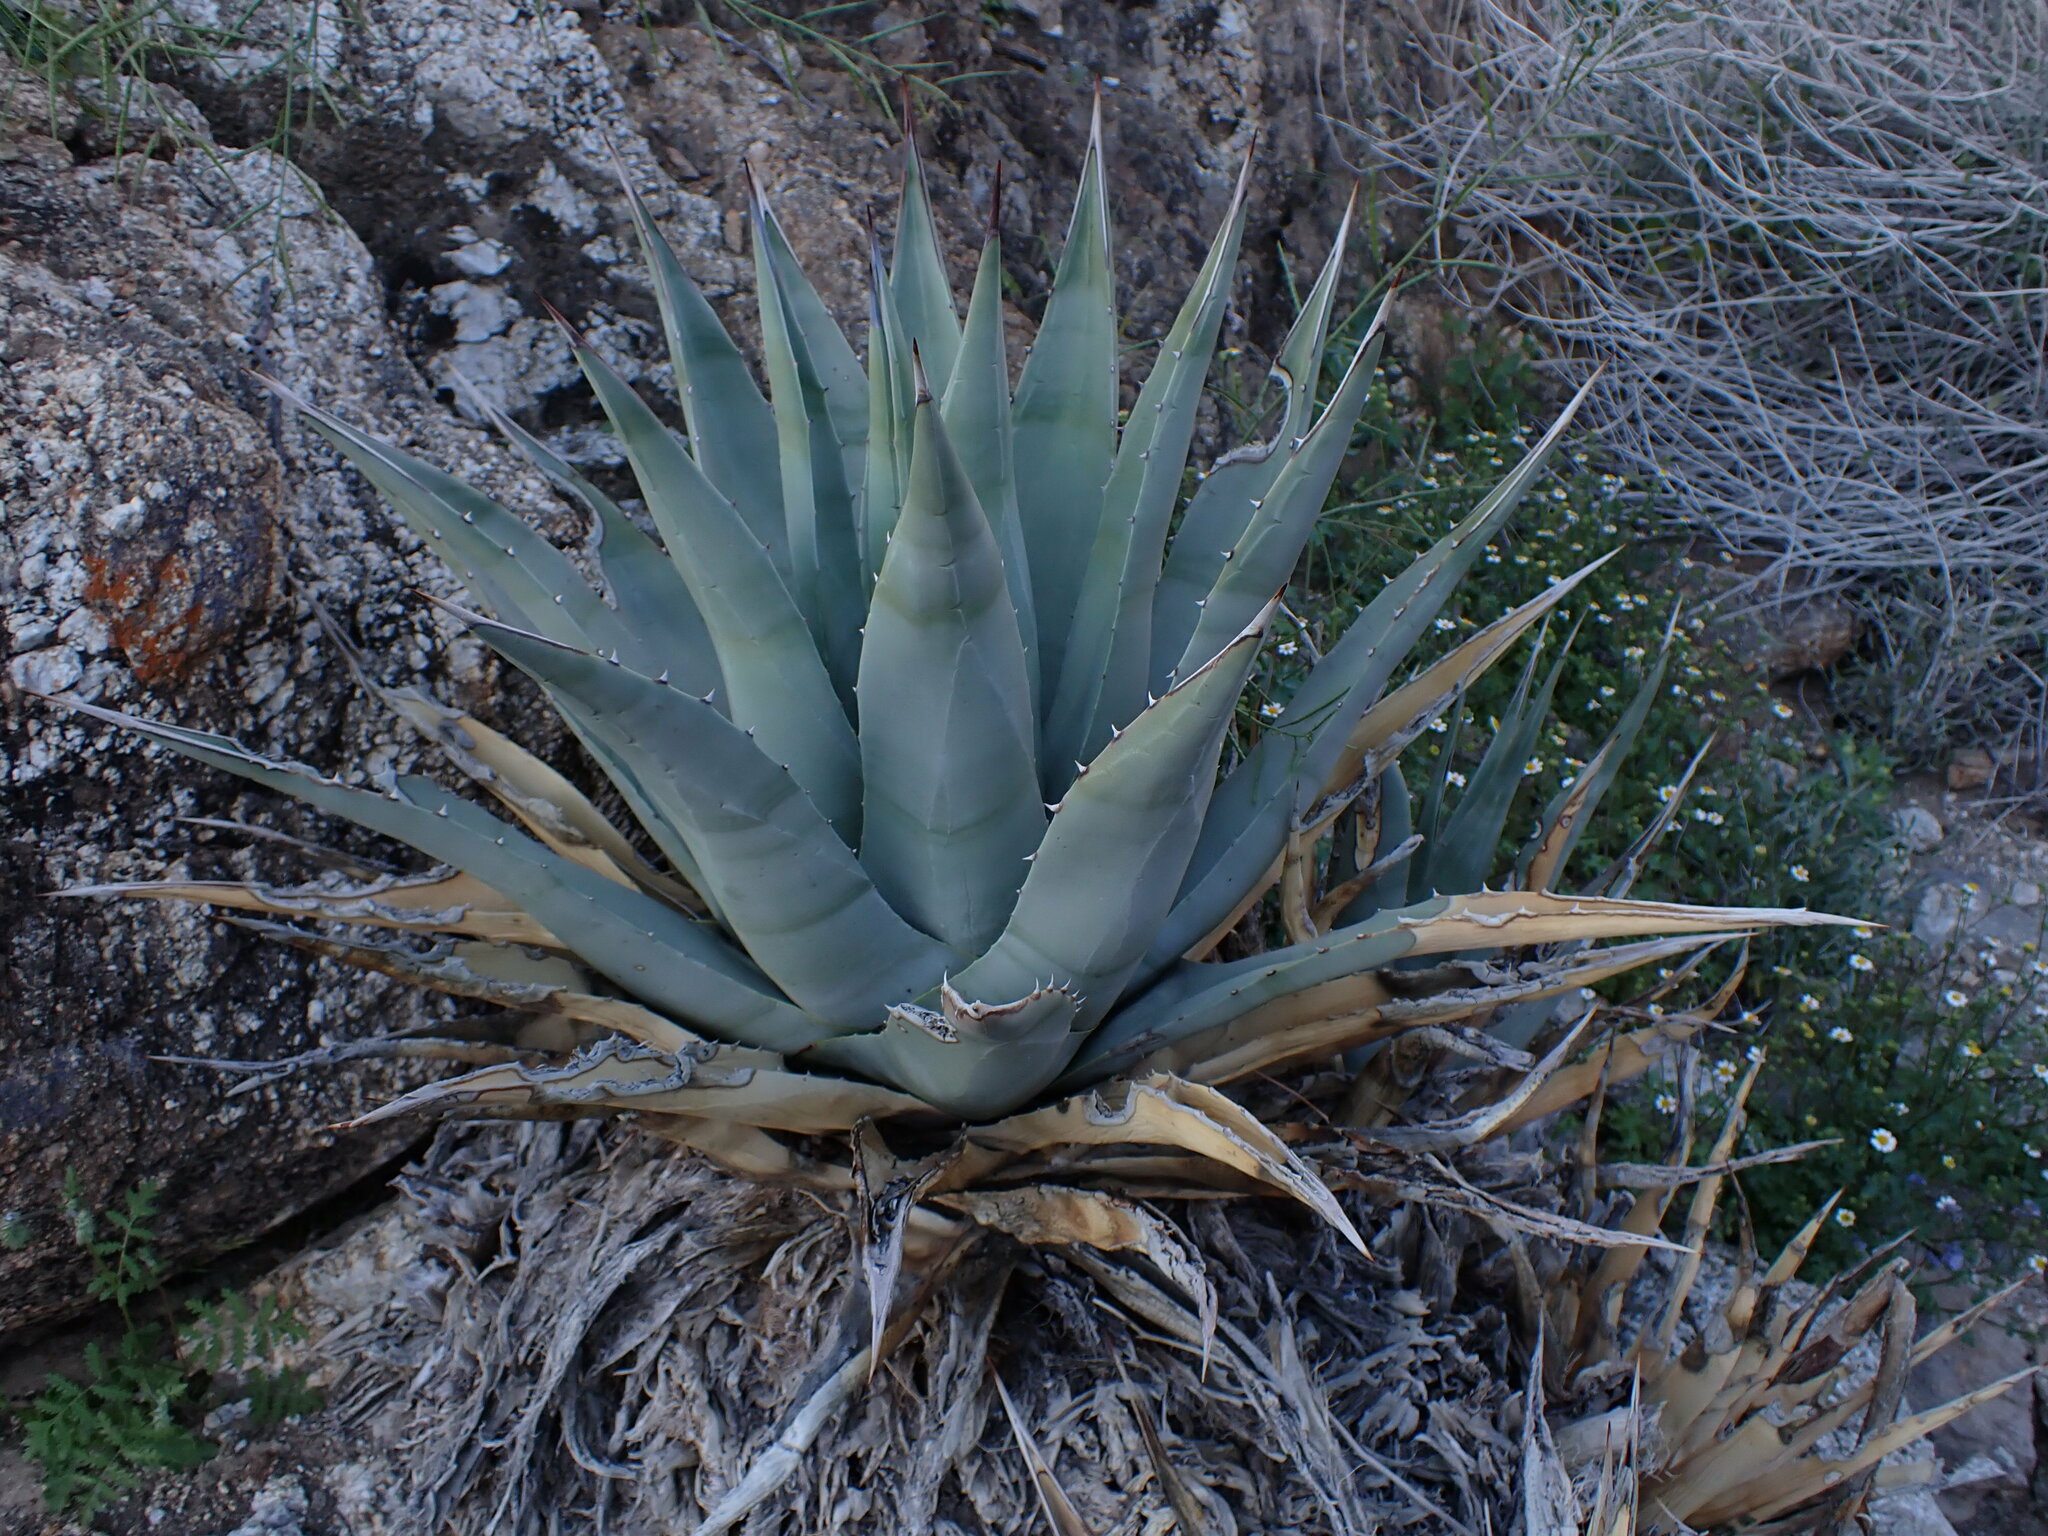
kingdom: Plantae
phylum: Tracheophyta
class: Liliopsida
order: Asparagales
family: Asparagaceae
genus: Agave
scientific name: Agave deserti
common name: Desert agave
